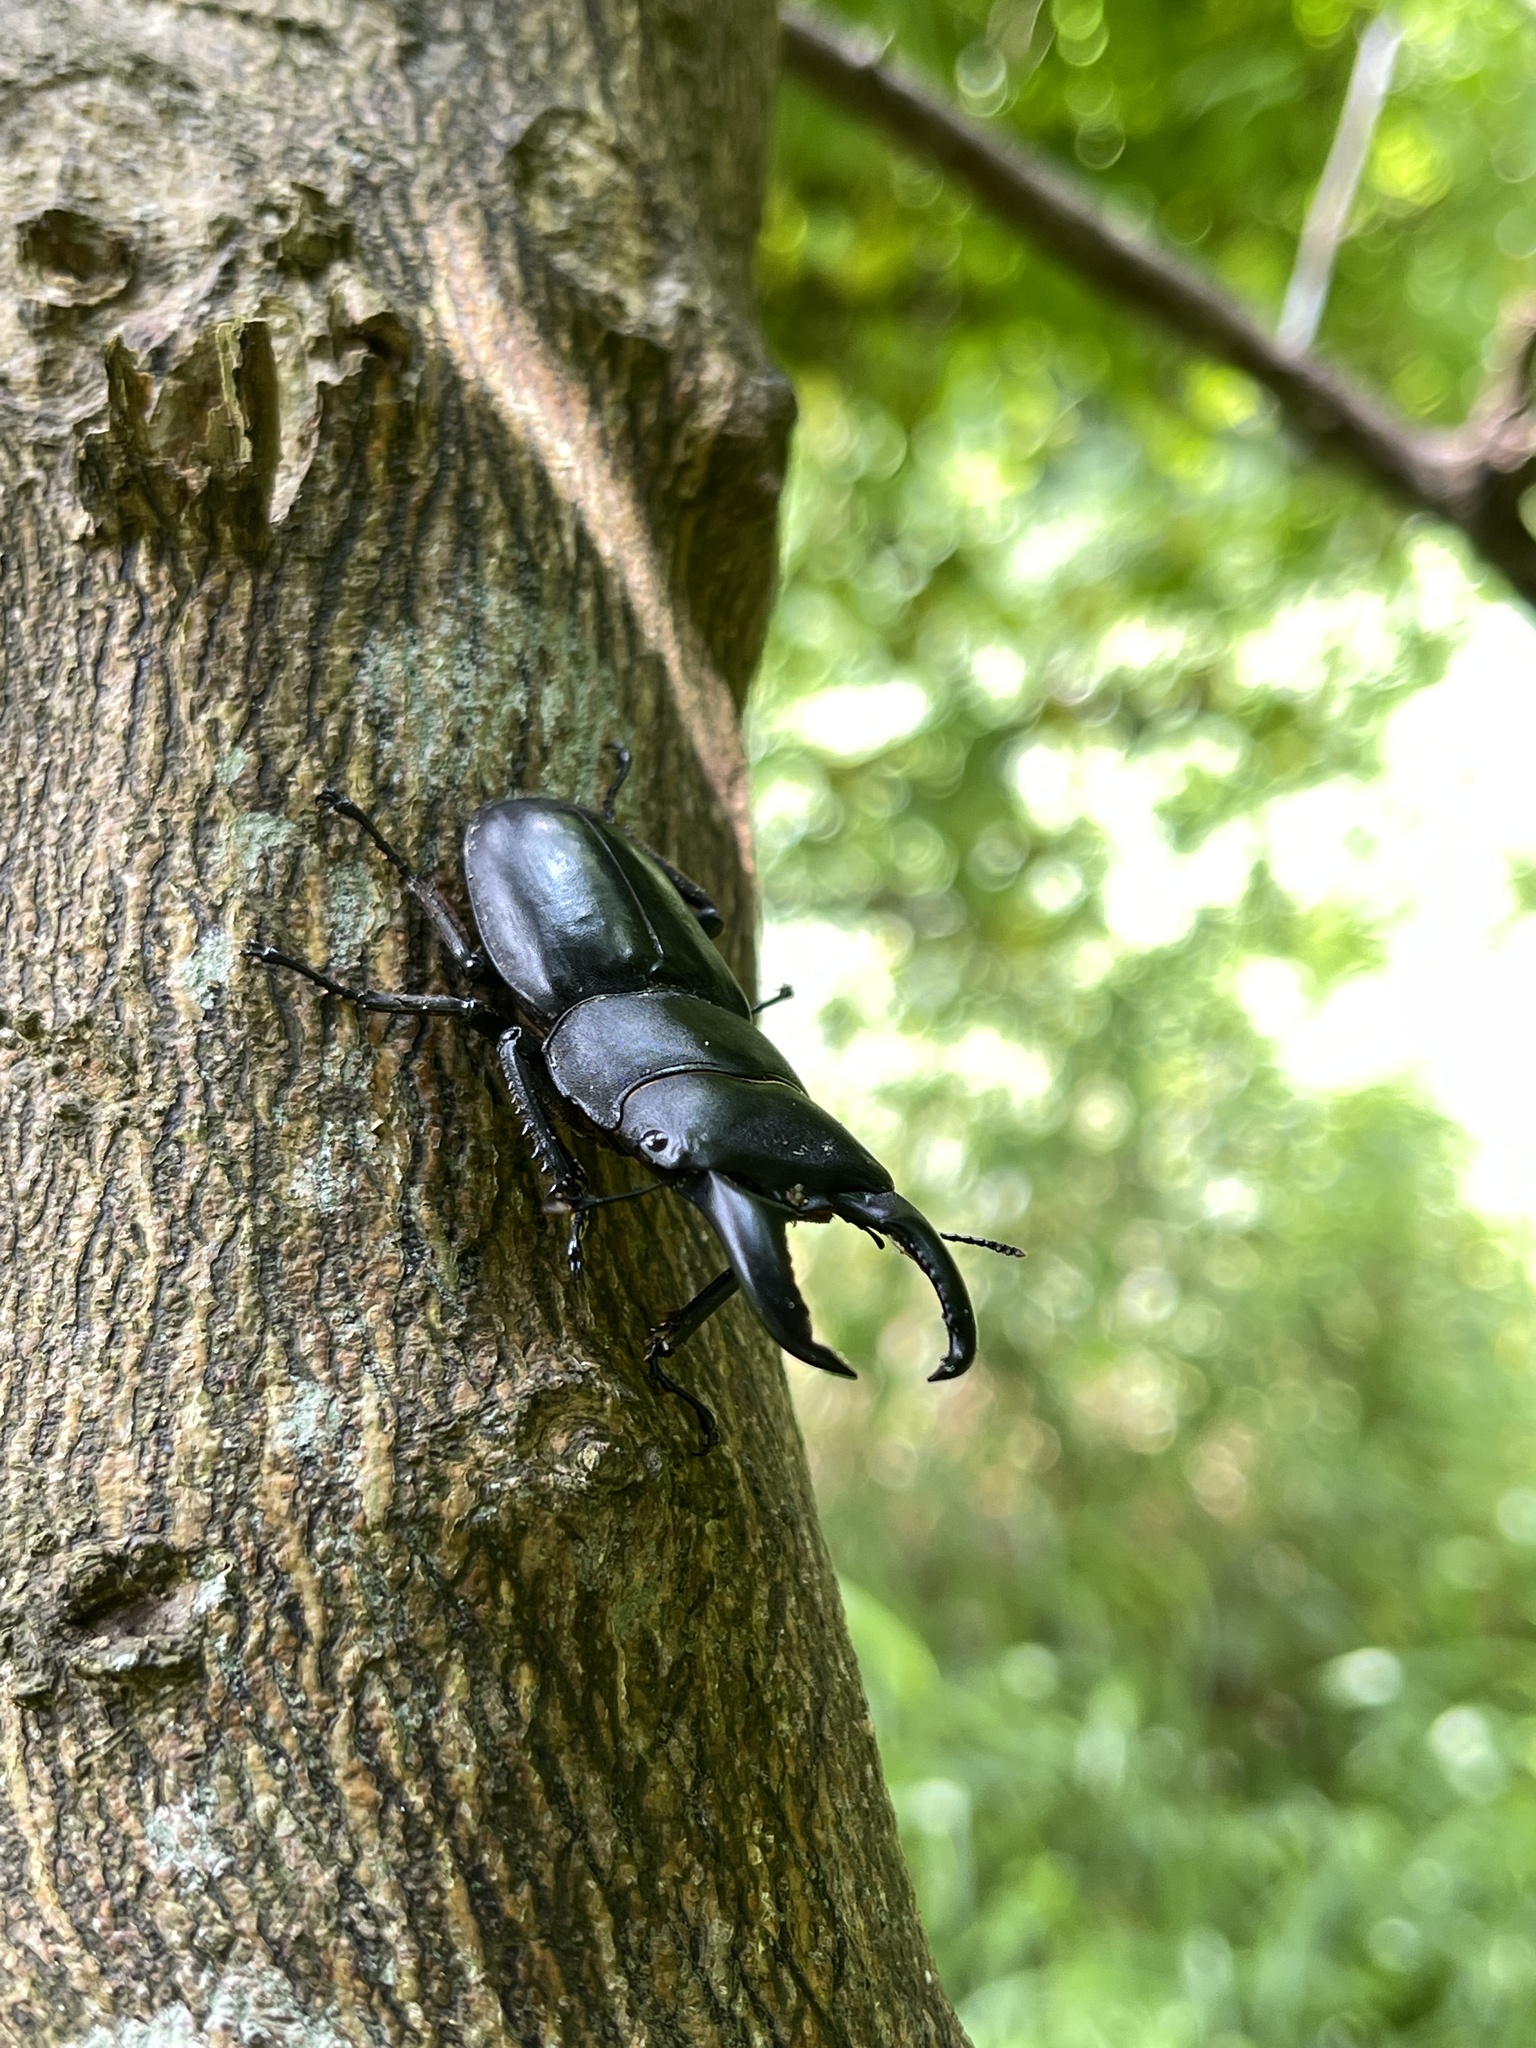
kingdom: Animalia
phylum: Arthropoda
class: Insecta
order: Coleoptera
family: Lucanidae
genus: Serrognathus
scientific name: Serrognathus titanus
